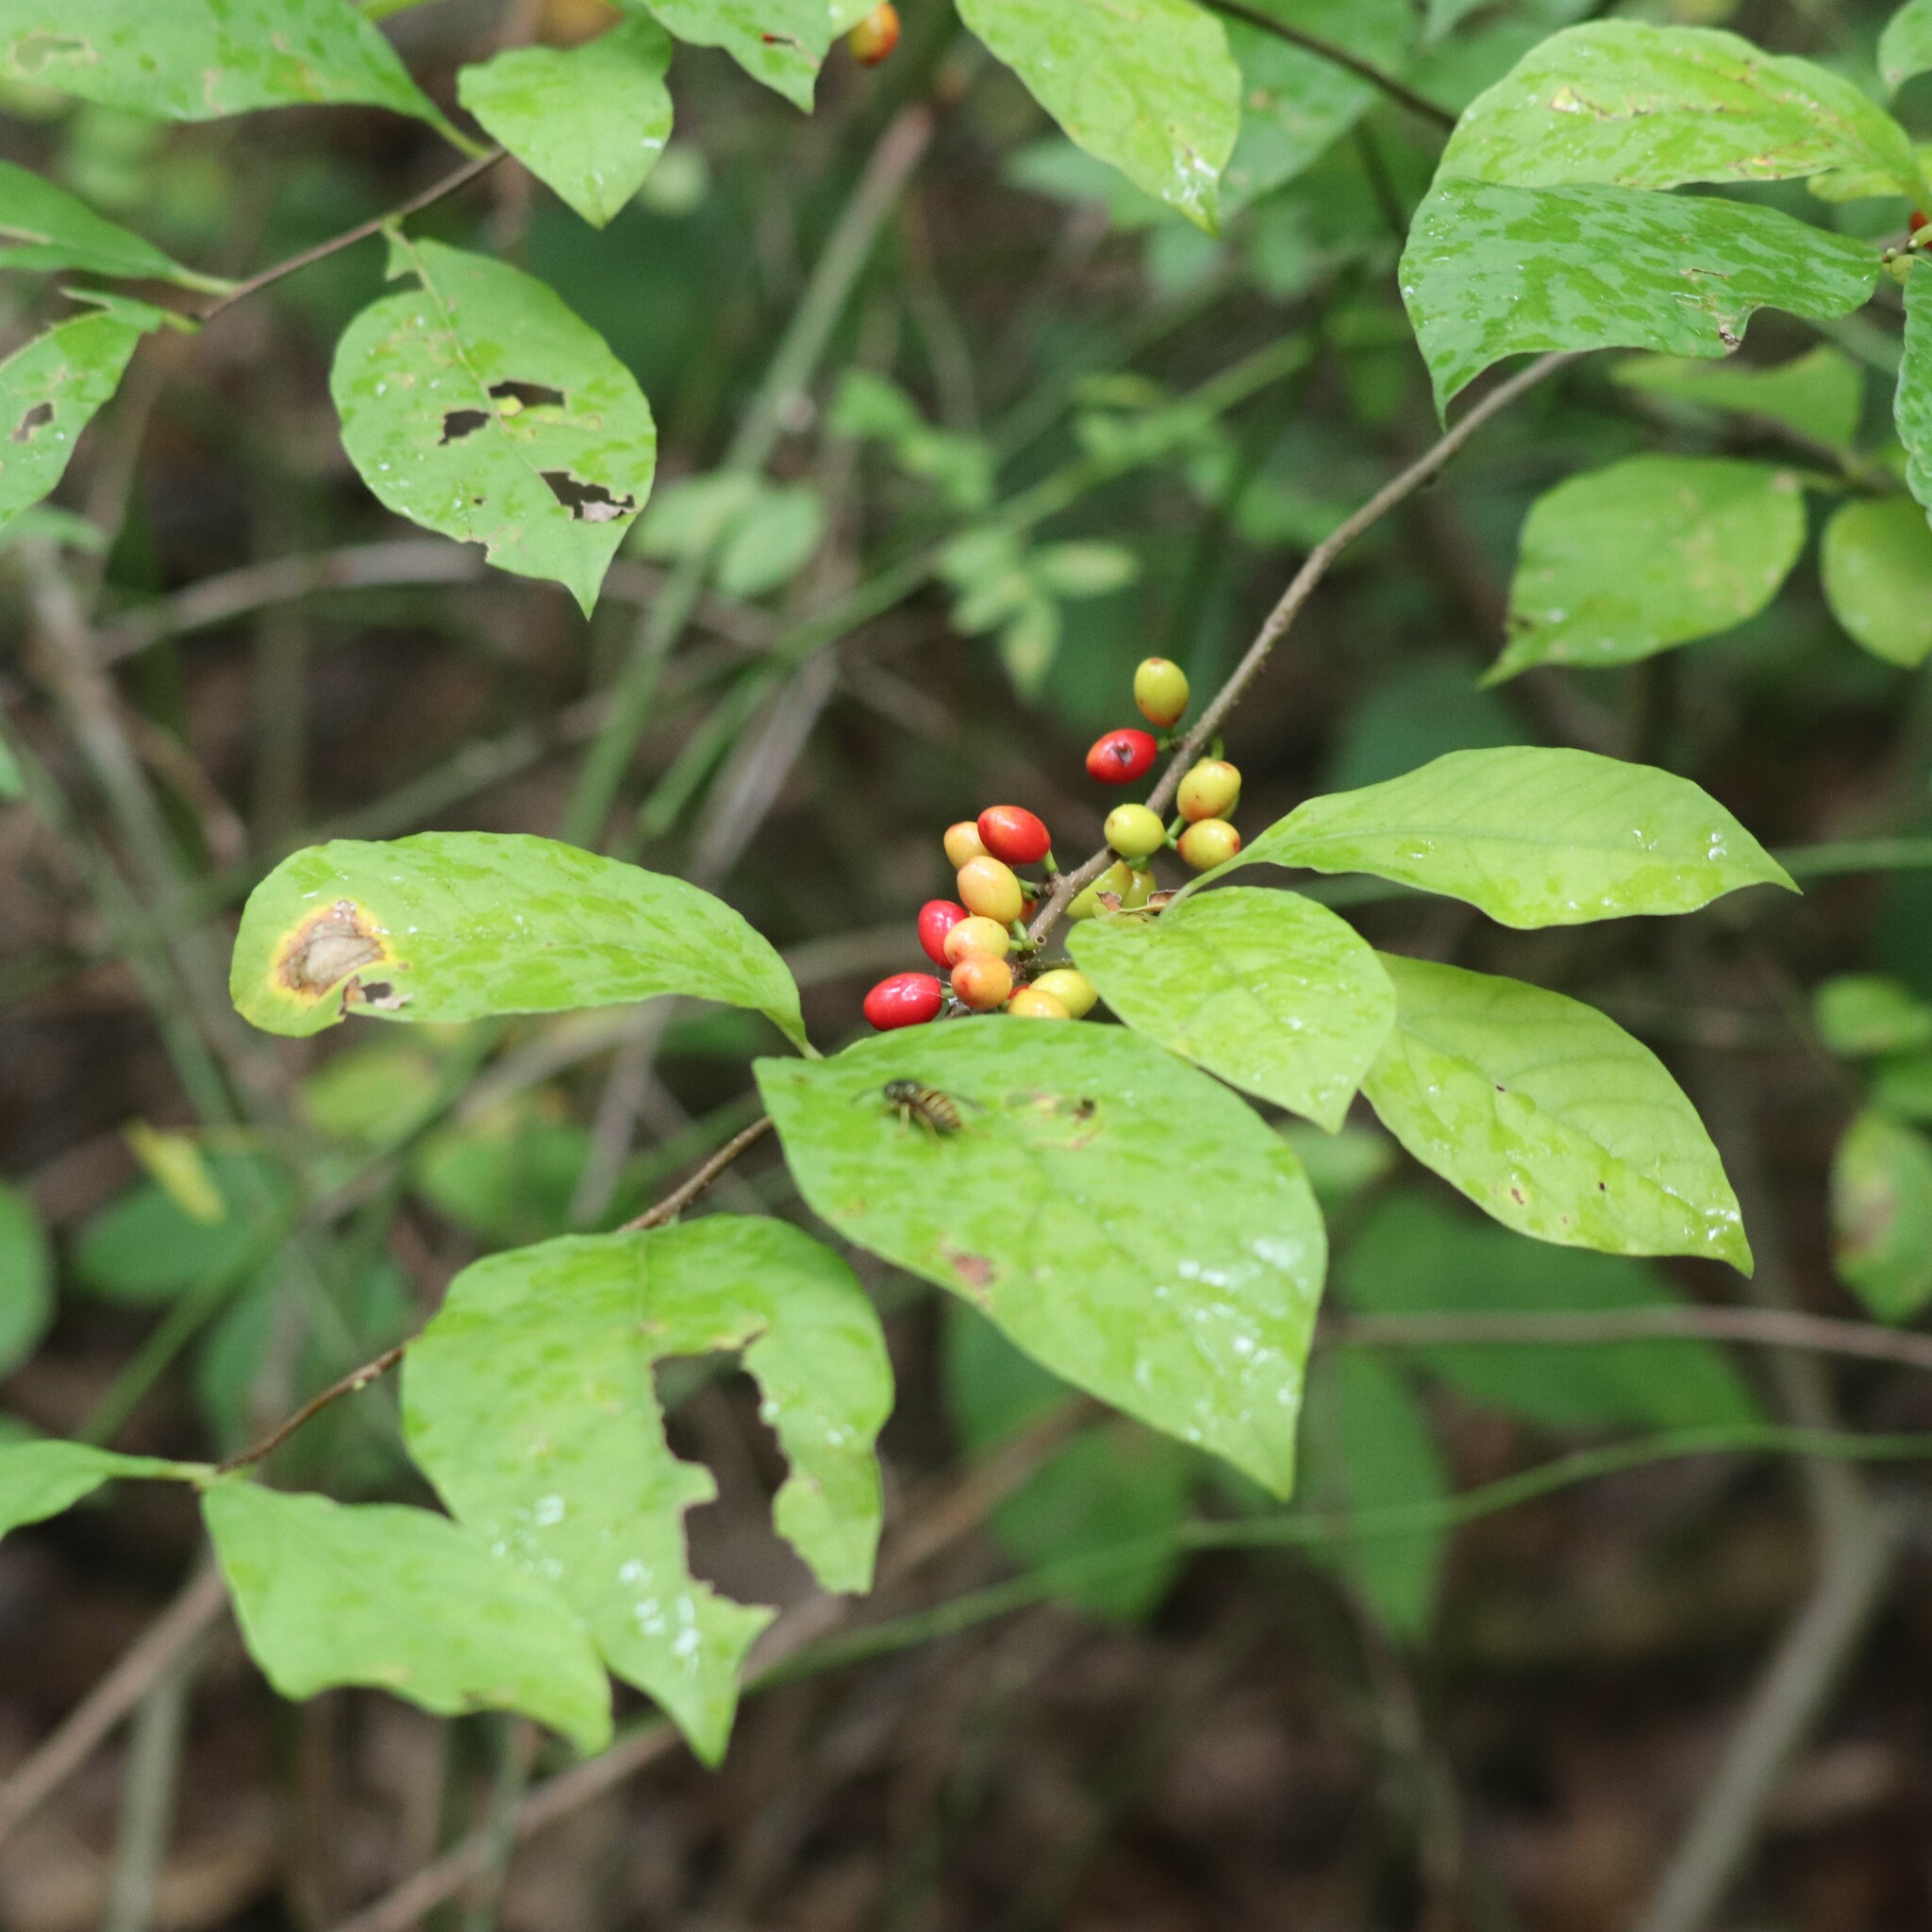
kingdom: Plantae
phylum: Tracheophyta
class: Magnoliopsida
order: Laurales
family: Lauraceae
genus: Lindera
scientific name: Lindera benzoin
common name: Spicebush
